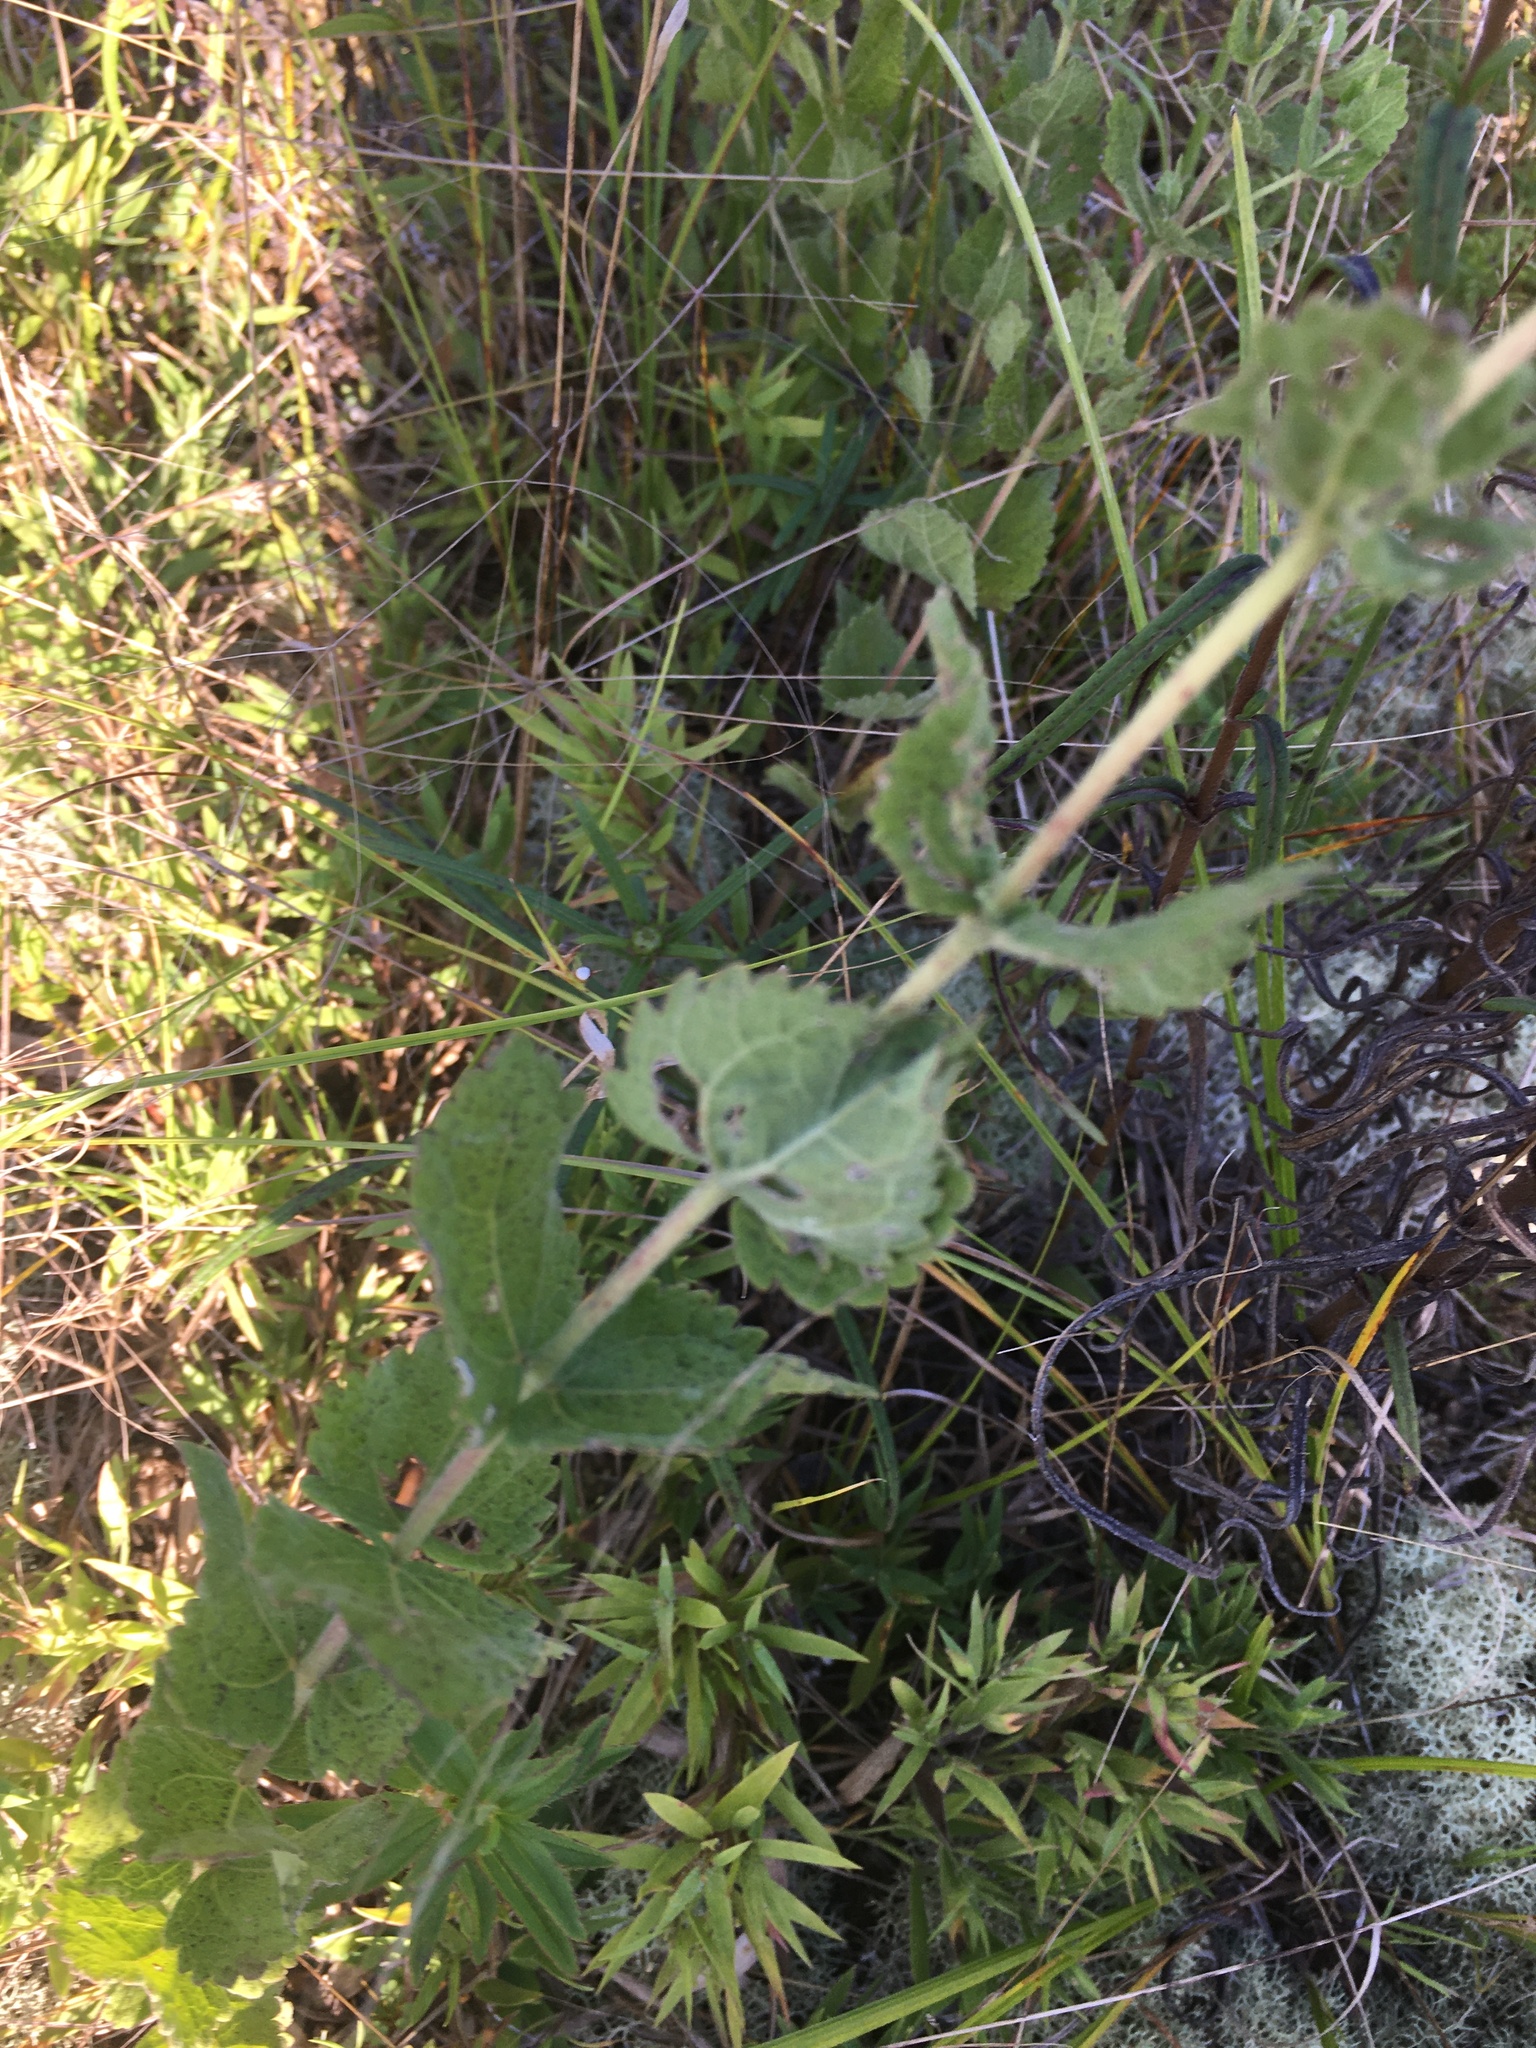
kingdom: Plantae
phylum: Tracheophyta
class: Magnoliopsida
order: Asterales
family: Asteraceae
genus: Eupatorium
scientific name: Eupatorium rotundifolium
